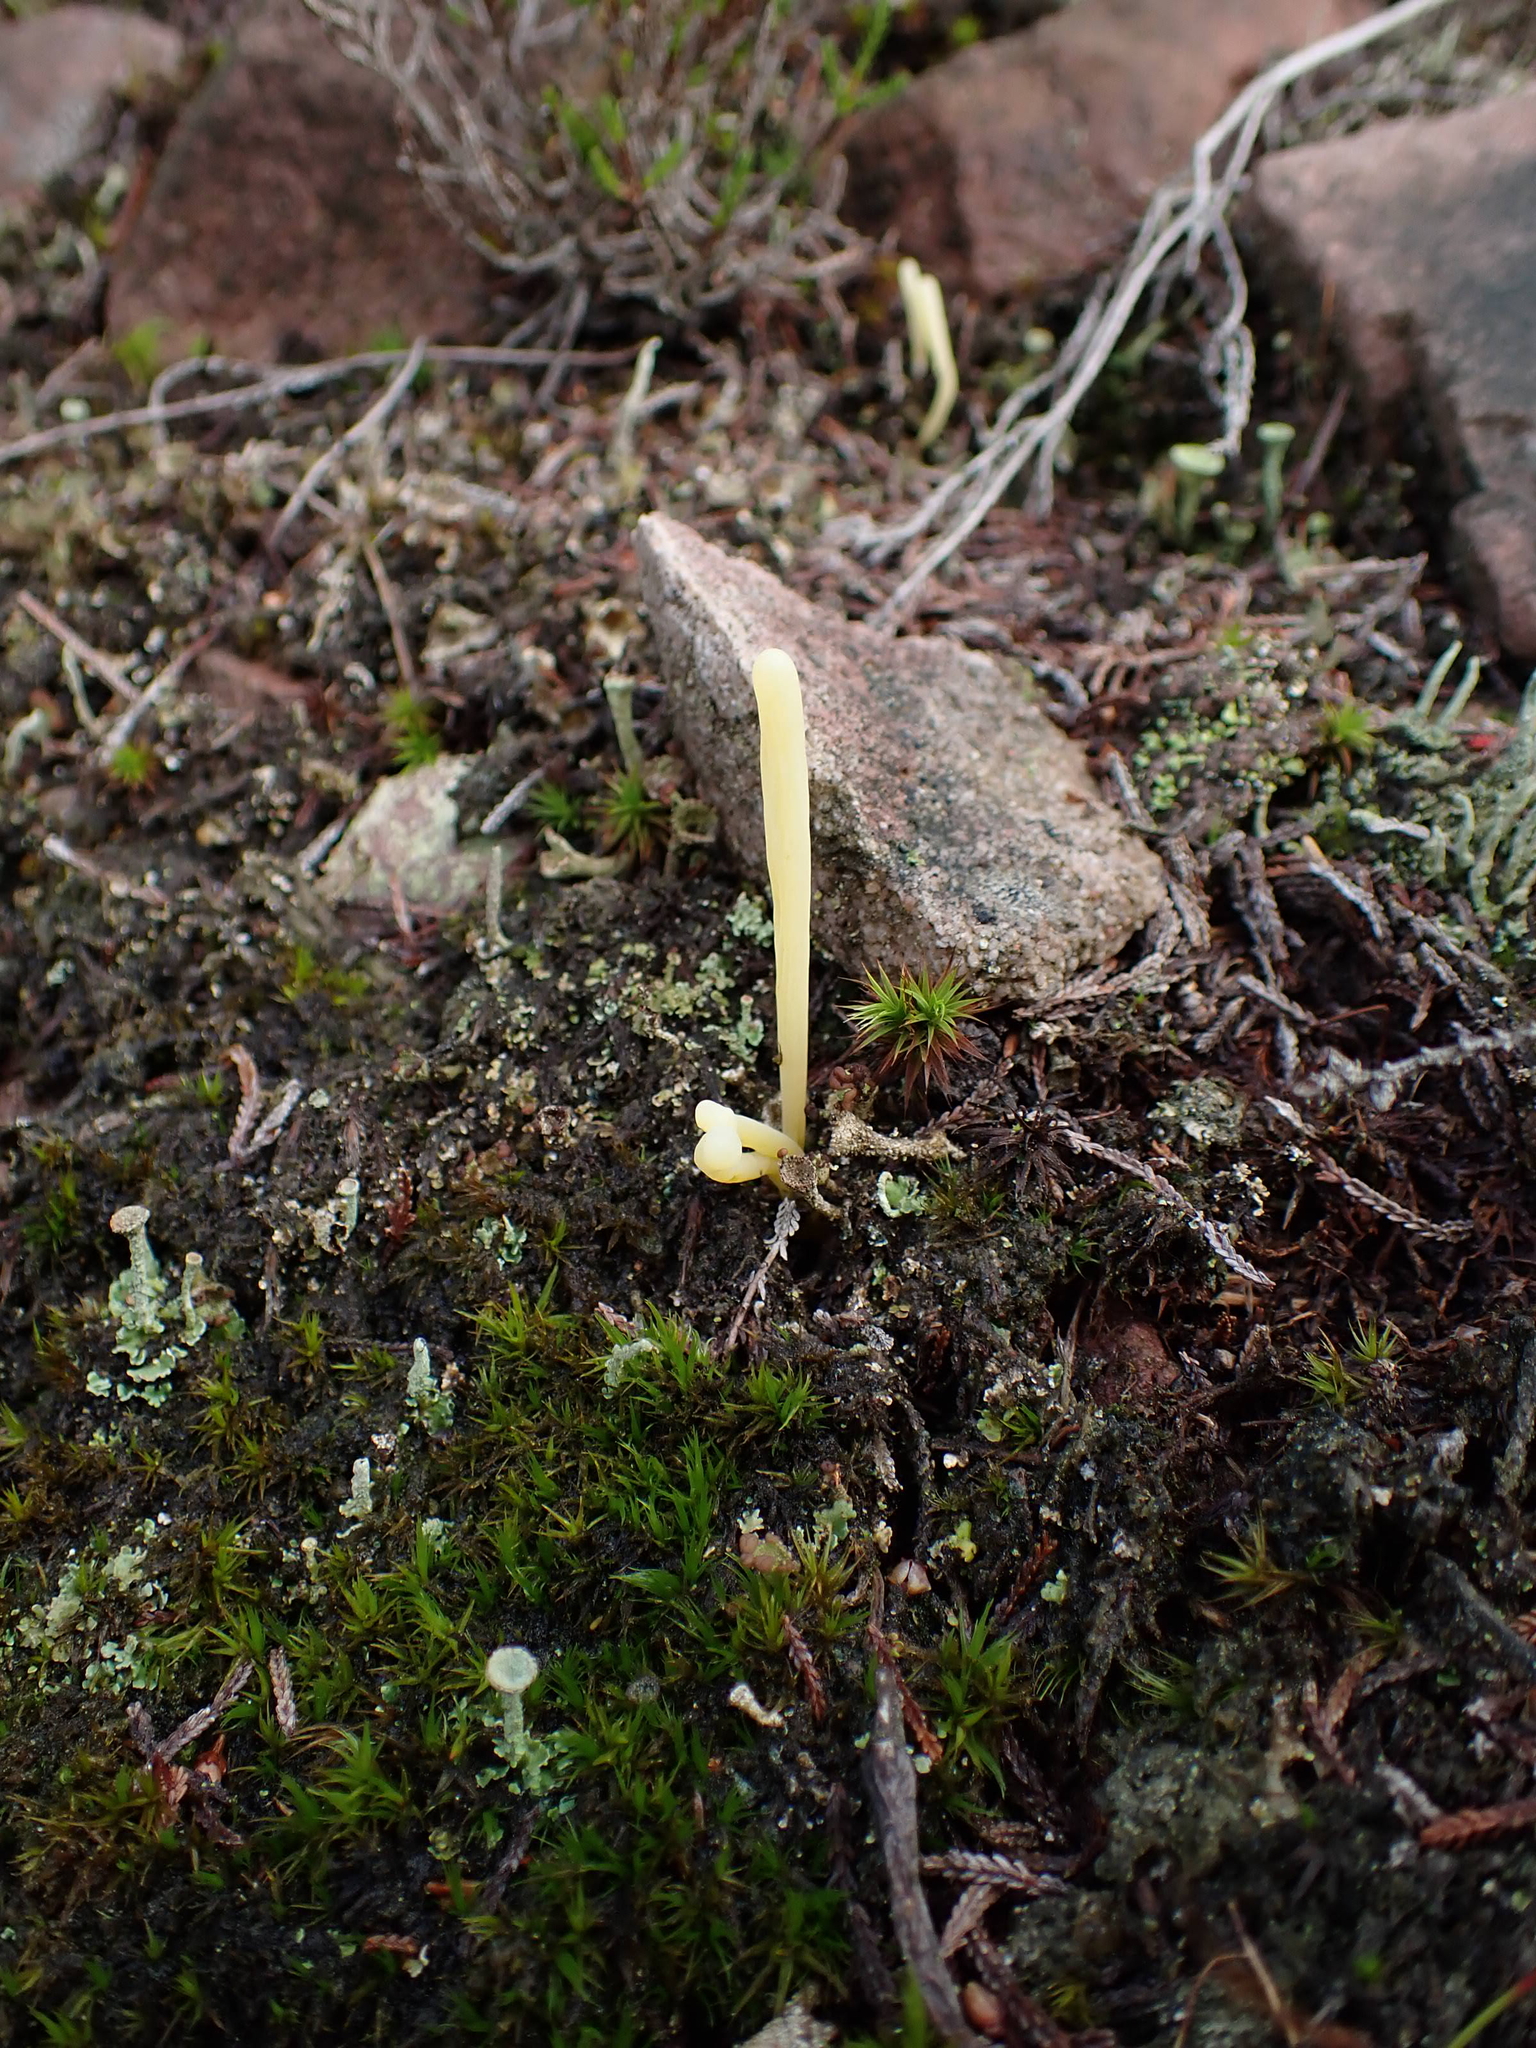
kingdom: Fungi
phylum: Basidiomycota
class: Agaricomycetes
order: Agaricales
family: Clavariaceae
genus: Clavaria
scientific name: Clavaria argillacea
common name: Moor club
